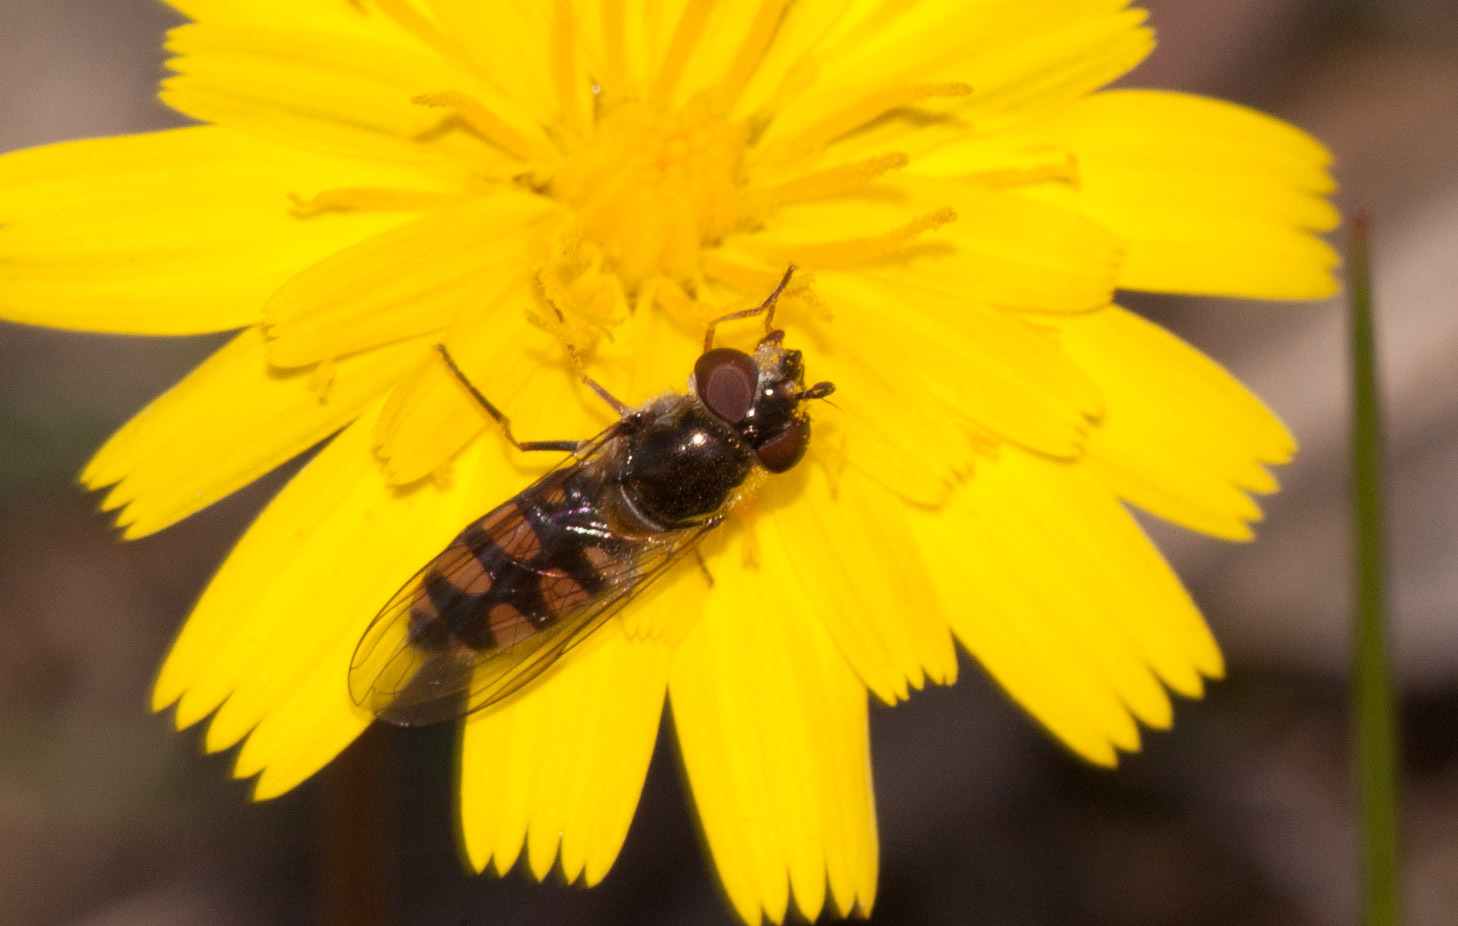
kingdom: Animalia
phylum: Arthropoda
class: Insecta
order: Diptera
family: Syrphidae
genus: Melangyna
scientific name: Melangyna viridiceps
